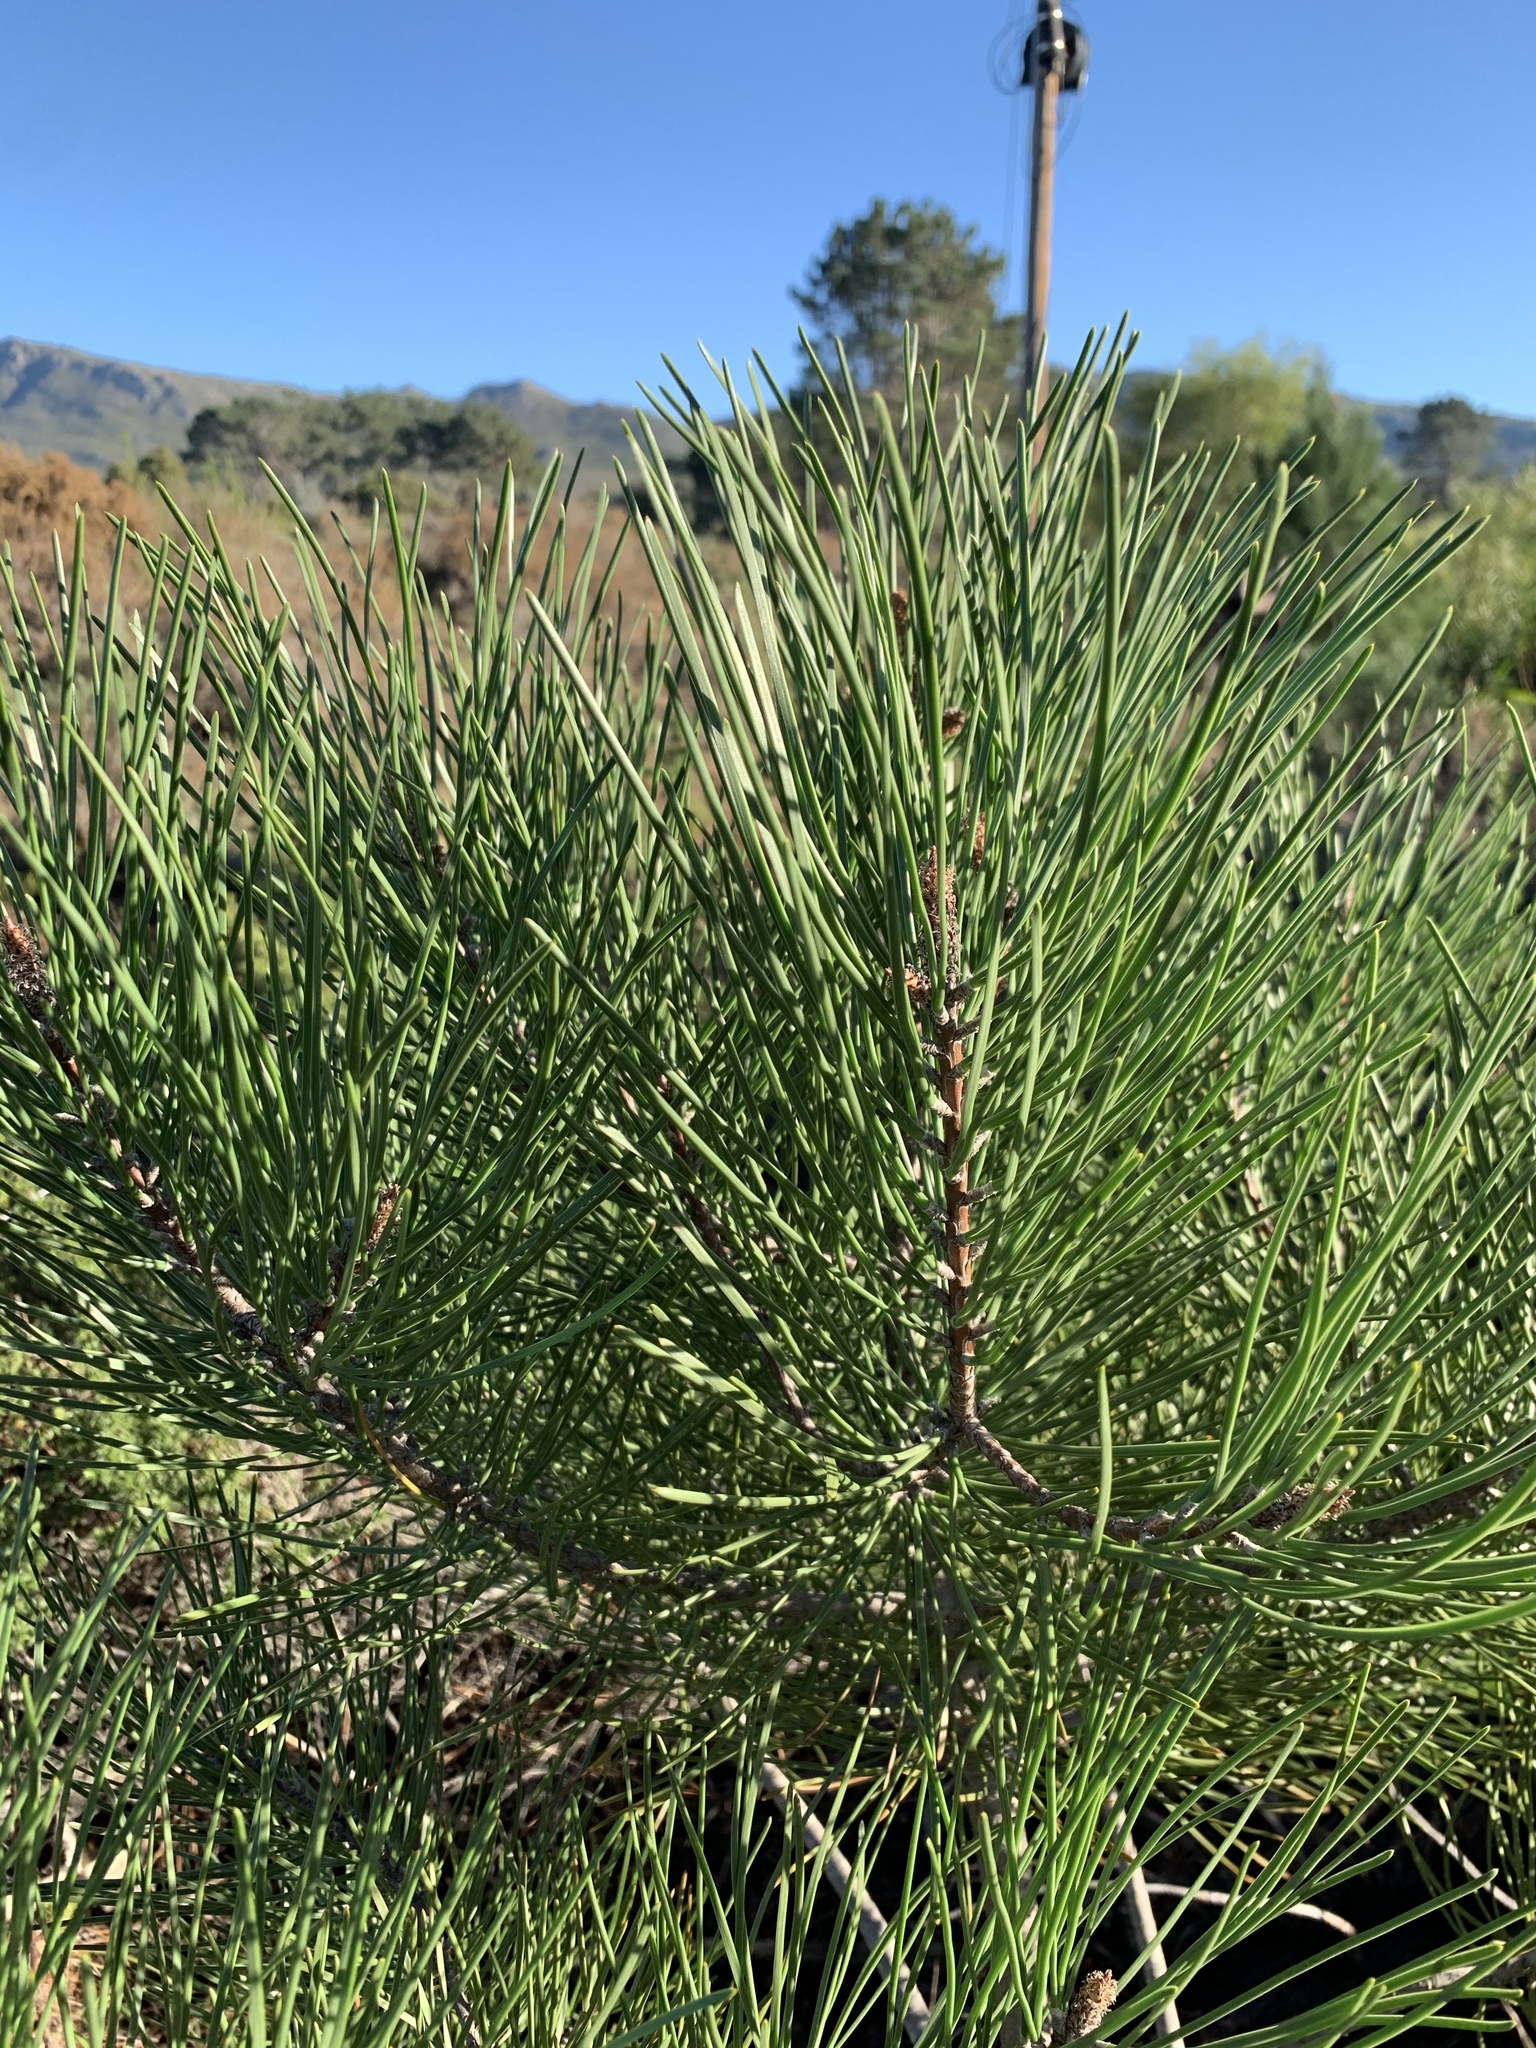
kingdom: Plantae
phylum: Tracheophyta
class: Pinopsida
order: Pinales
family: Pinaceae
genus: Pinus
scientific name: Pinus pinaster
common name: Maritime pine
